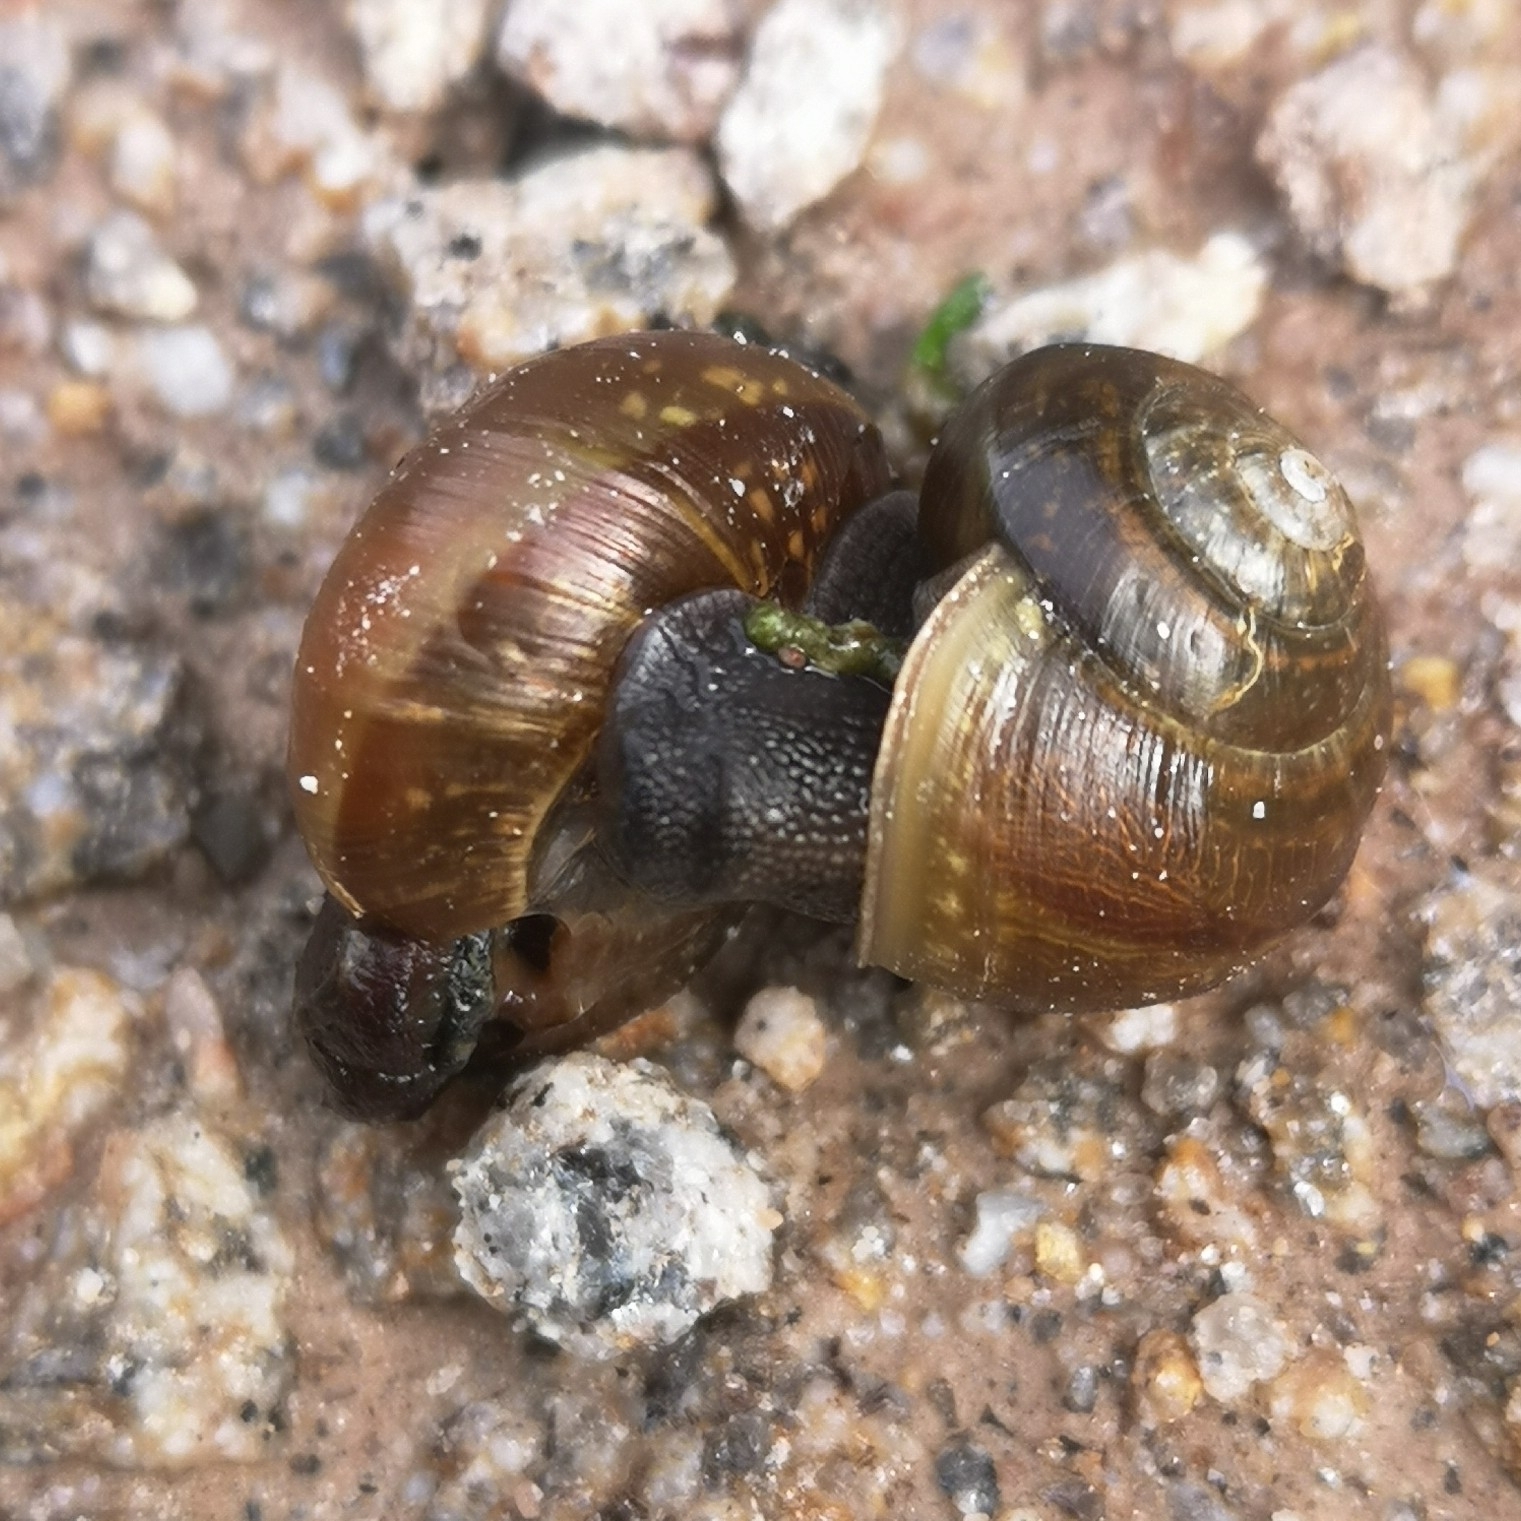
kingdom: Animalia
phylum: Mollusca
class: Gastropoda
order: Stylommatophora
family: Helicidae
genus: Arianta
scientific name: Arianta arbustorum
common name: Copse snail
